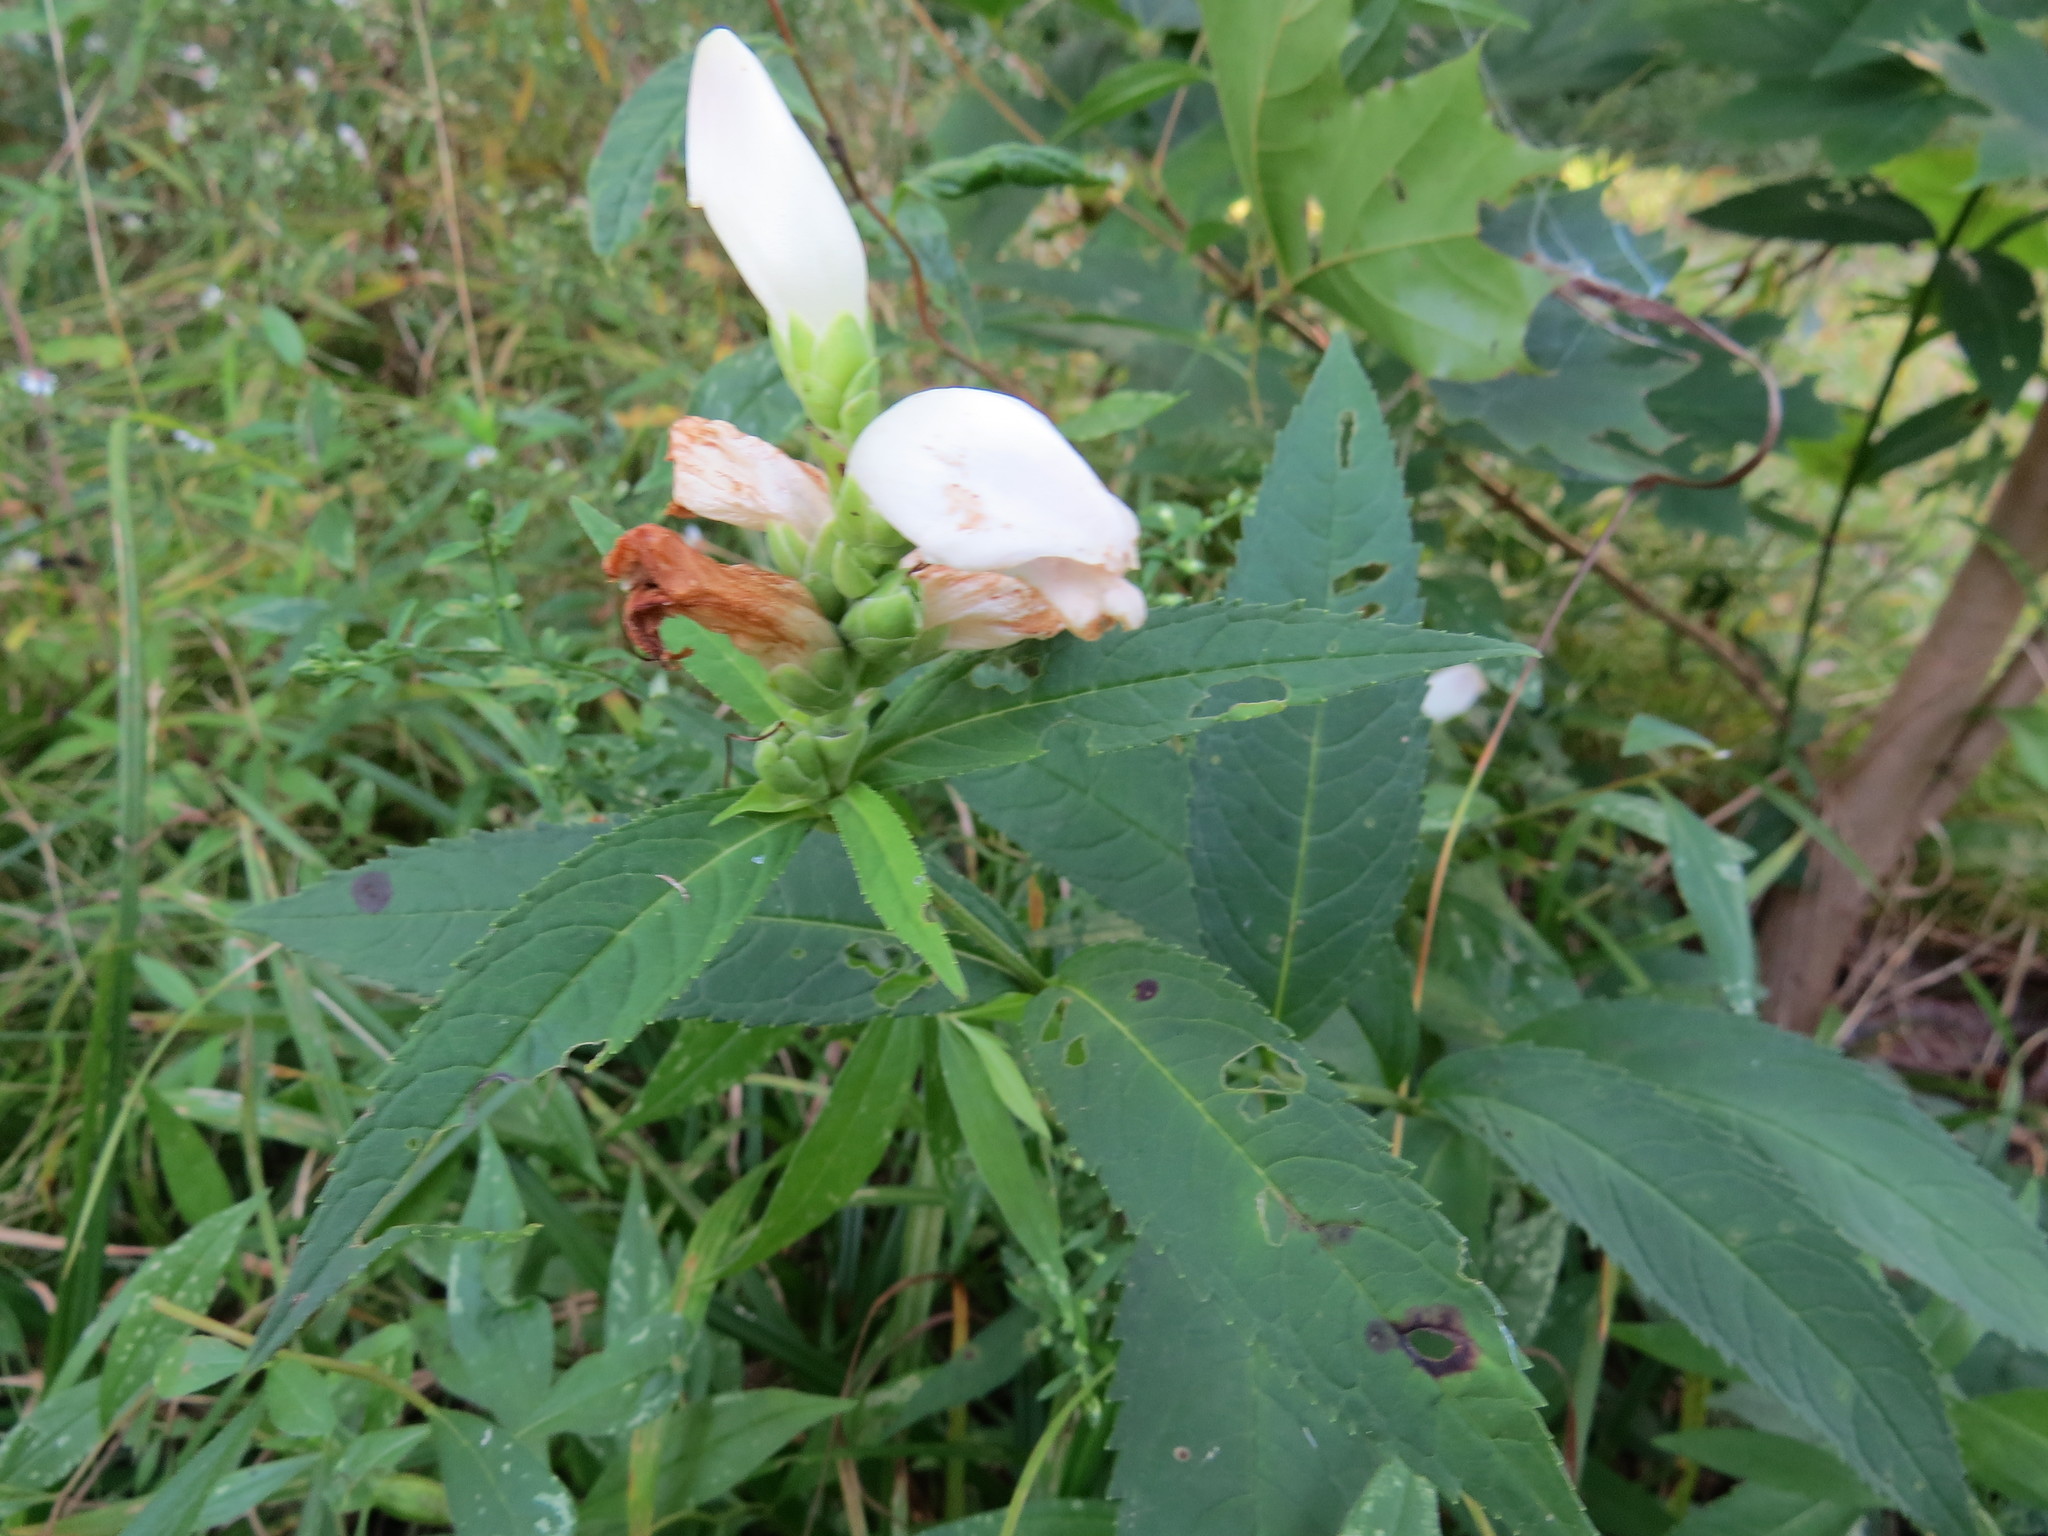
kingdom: Plantae
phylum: Tracheophyta
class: Magnoliopsida
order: Lamiales
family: Plantaginaceae
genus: Chelone
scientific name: Chelone glabra
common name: Snakehead
